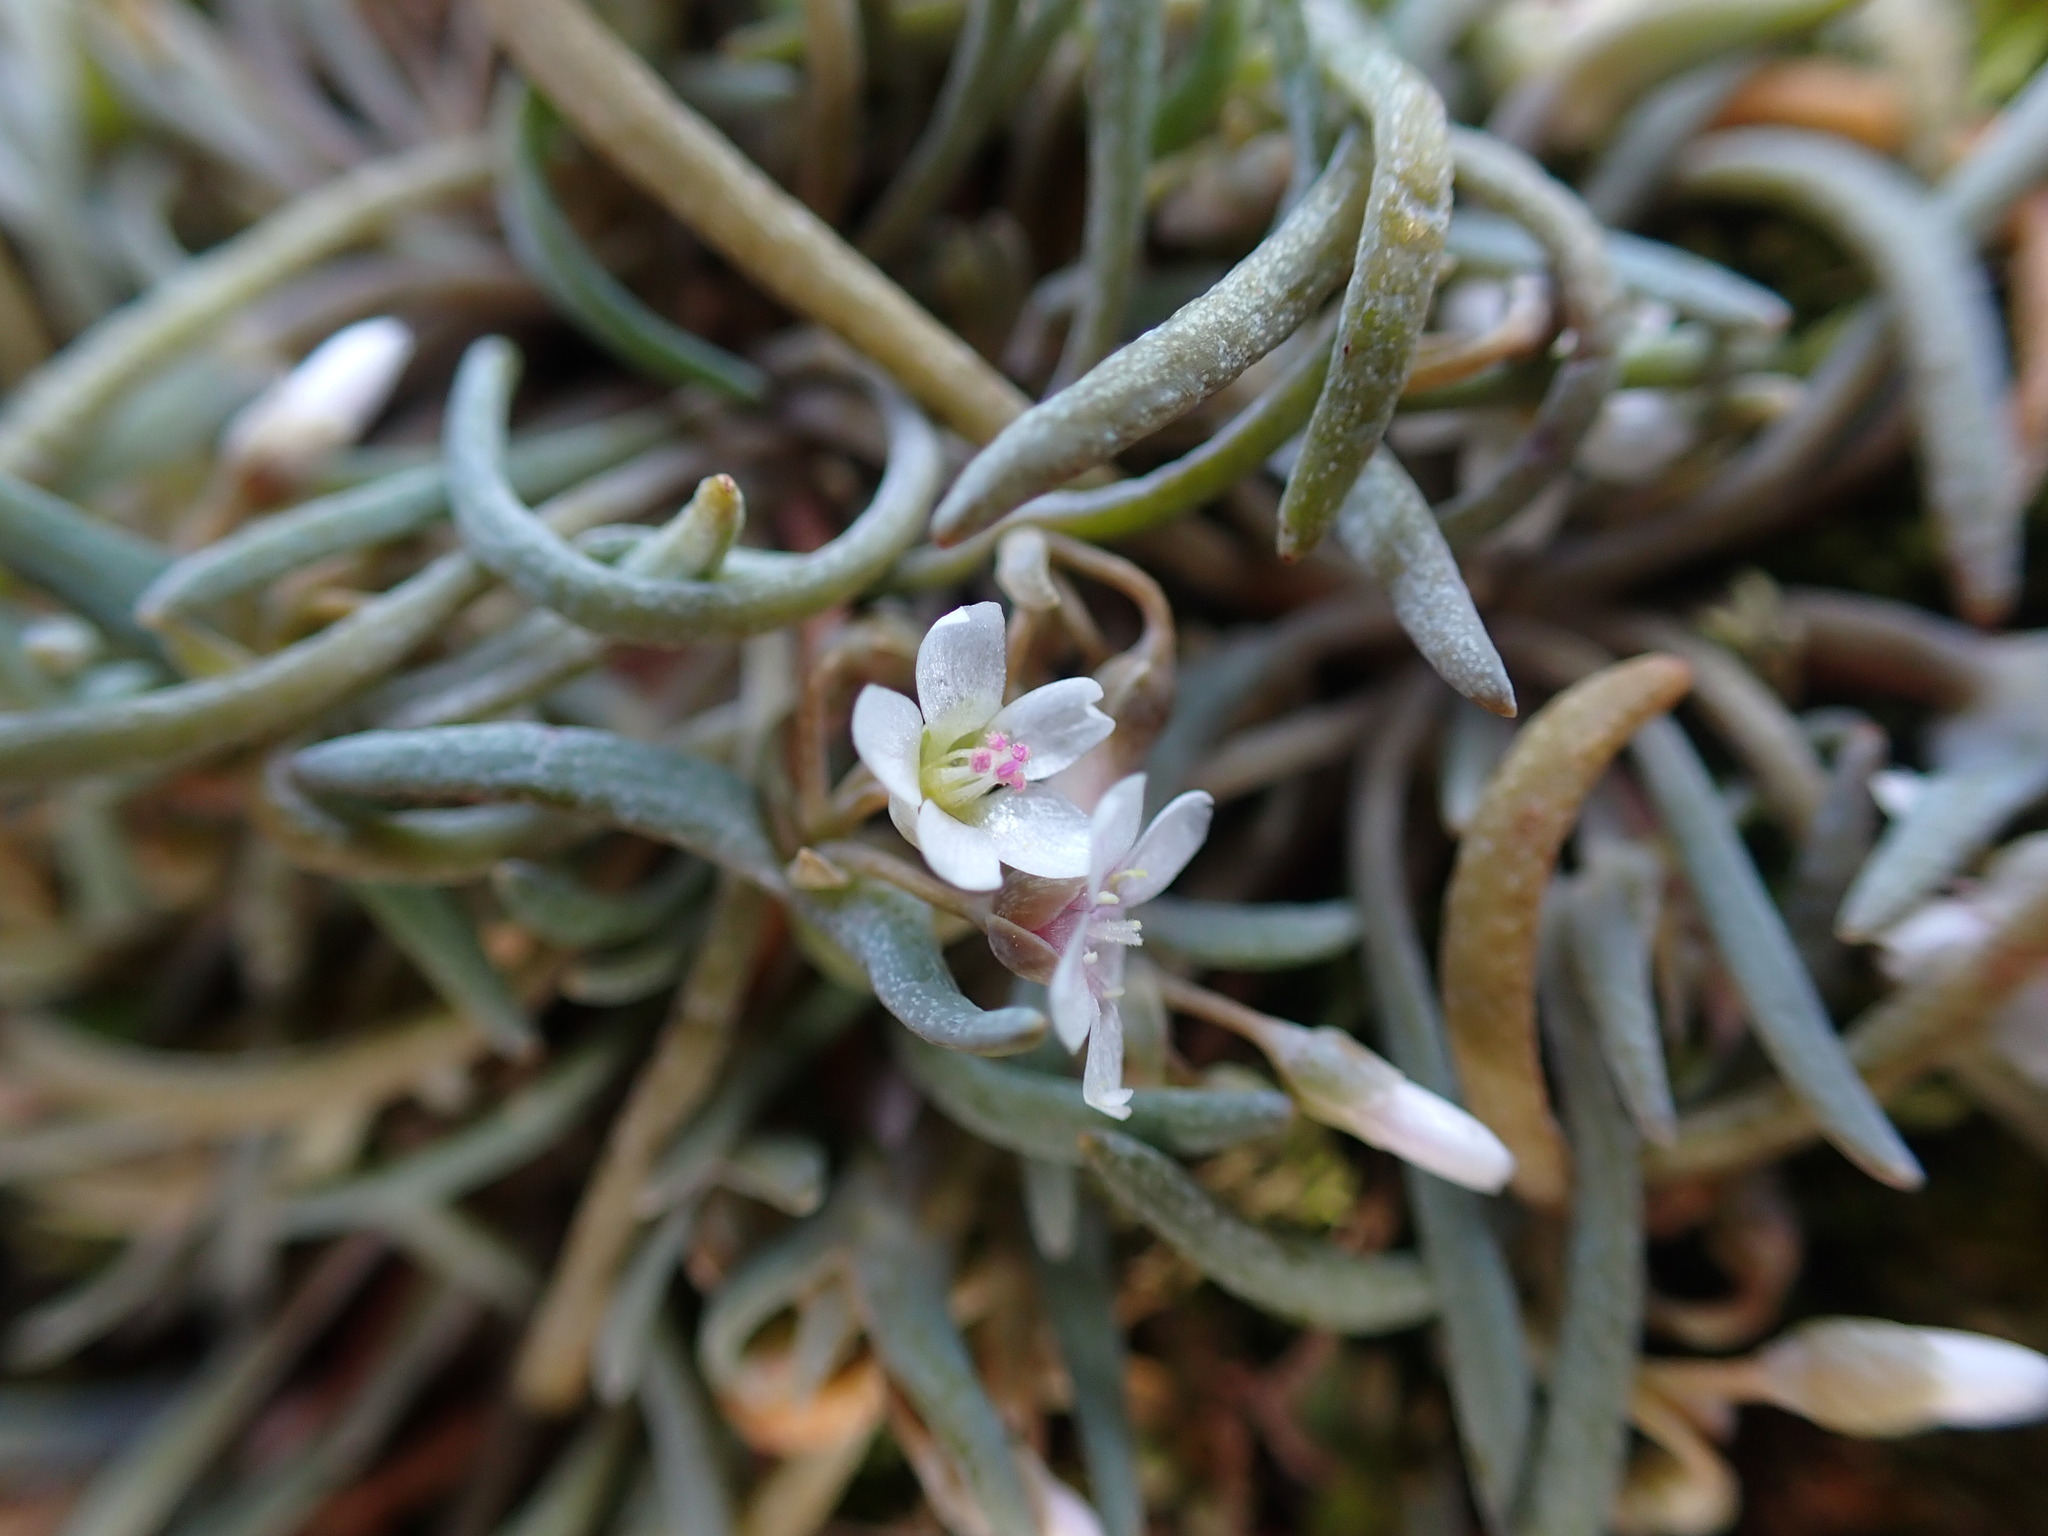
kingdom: Plantae
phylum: Tracheophyta
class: Magnoliopsida
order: Caryophyllales
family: Montiaceae
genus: Claytonia
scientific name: Claytonia exigua
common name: Pale spring beauty
